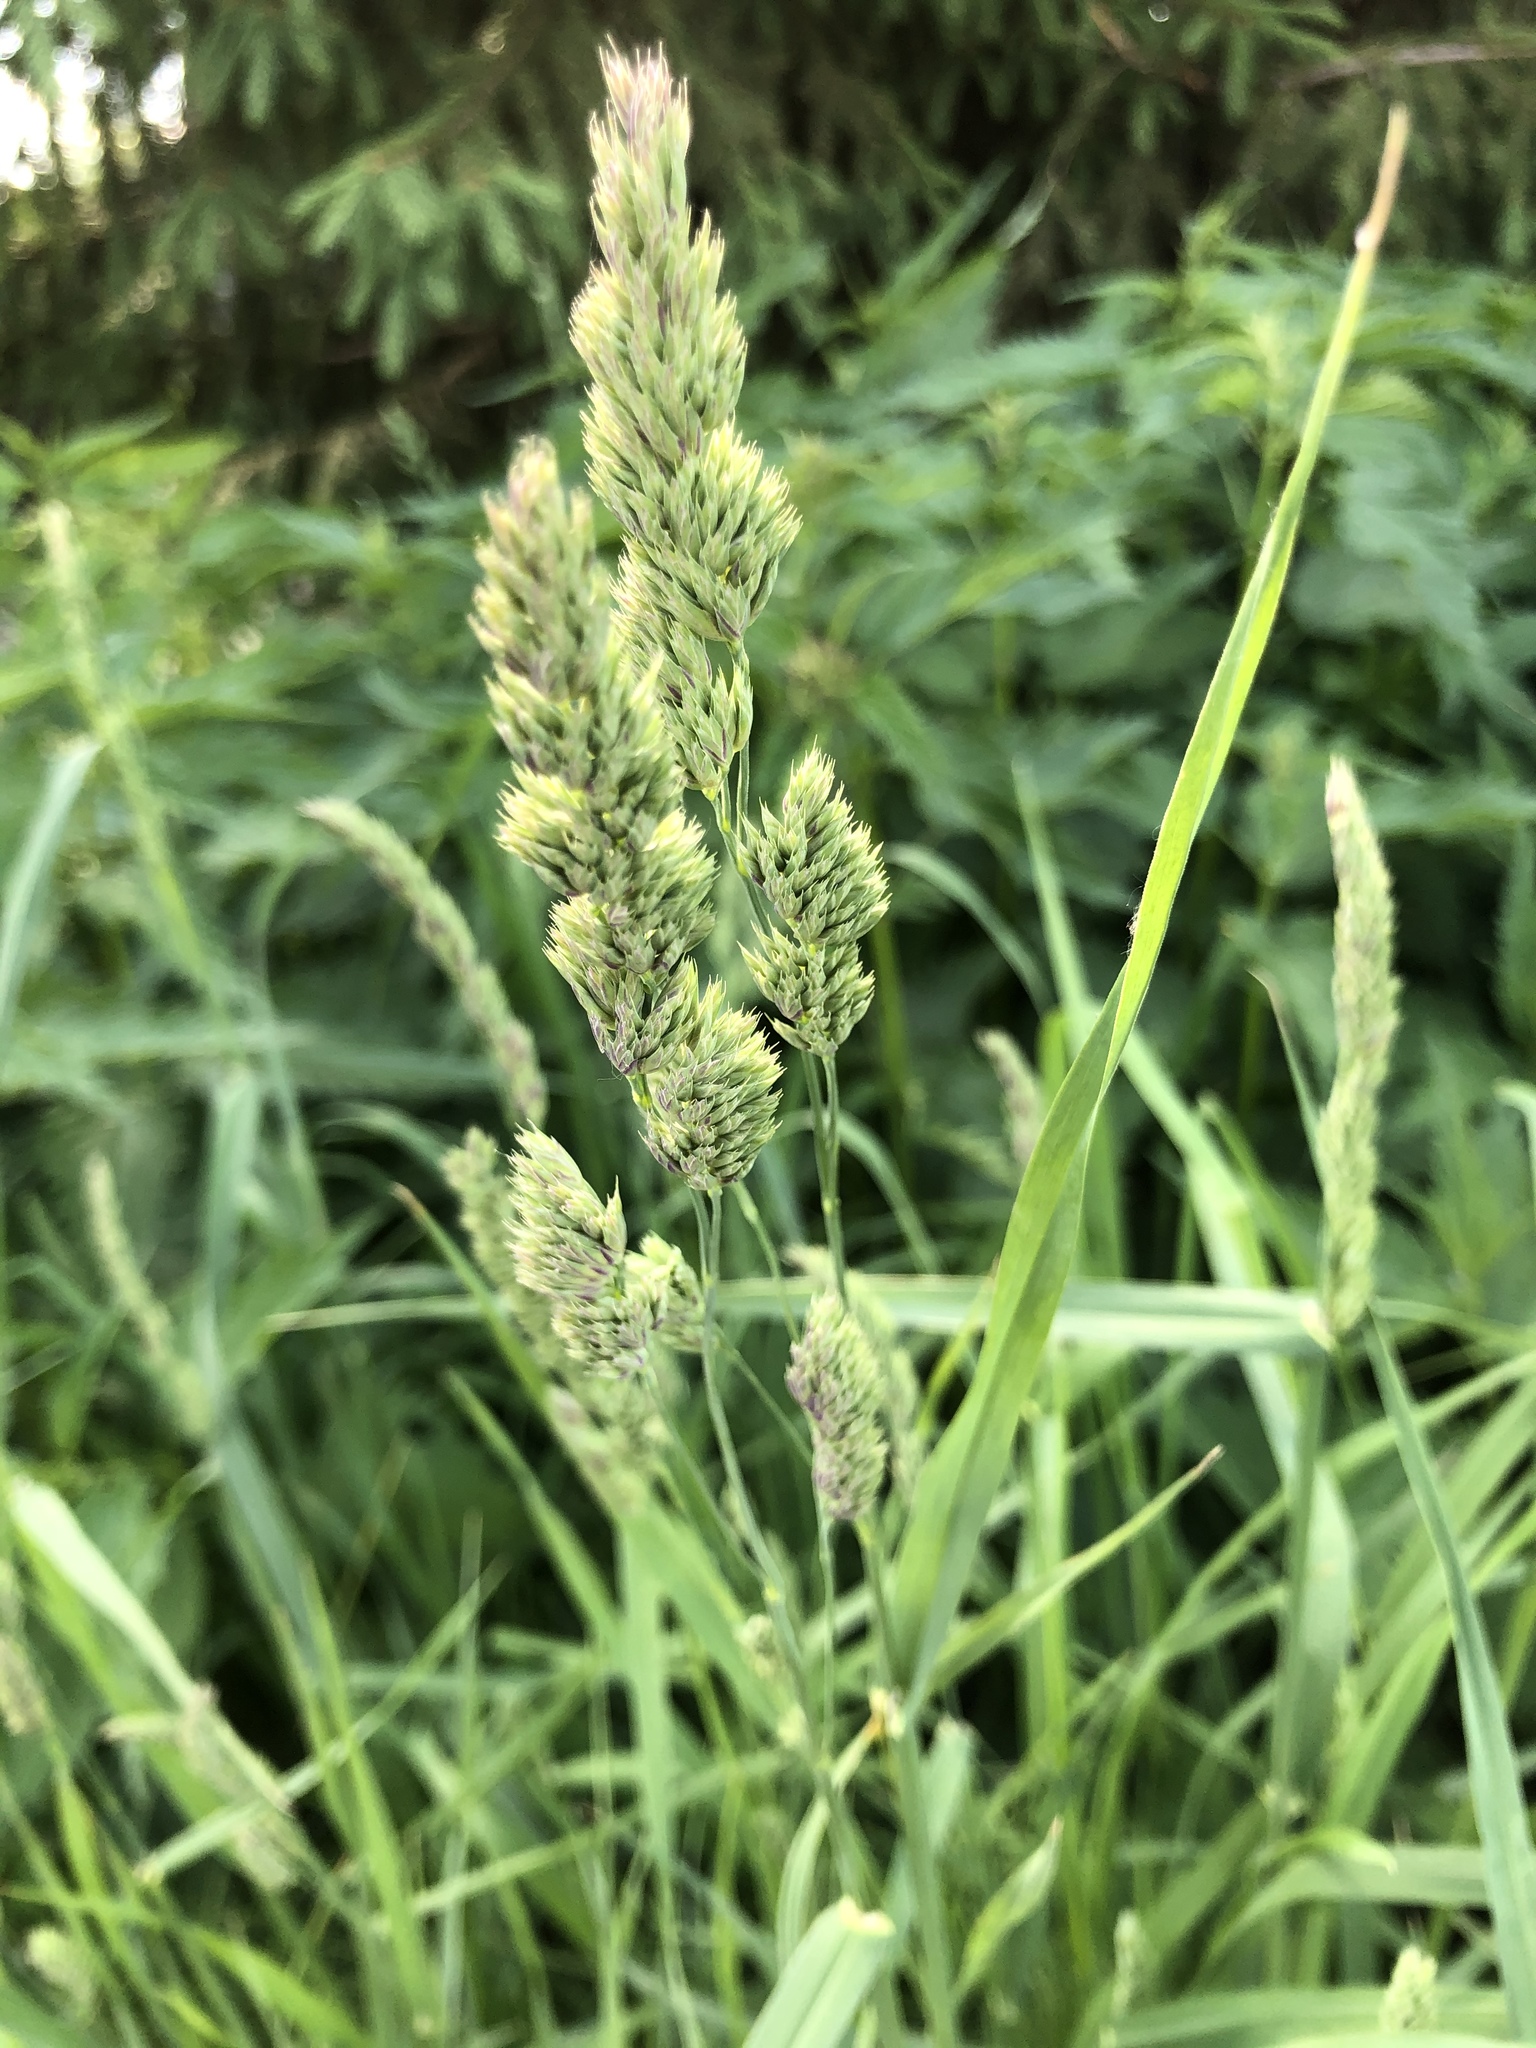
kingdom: Plantae
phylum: Tracheophyta
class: Liliopsida
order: Poales
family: Poaceae
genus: Dactylis
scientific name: Dactylis glomerata
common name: Orchardgrass
